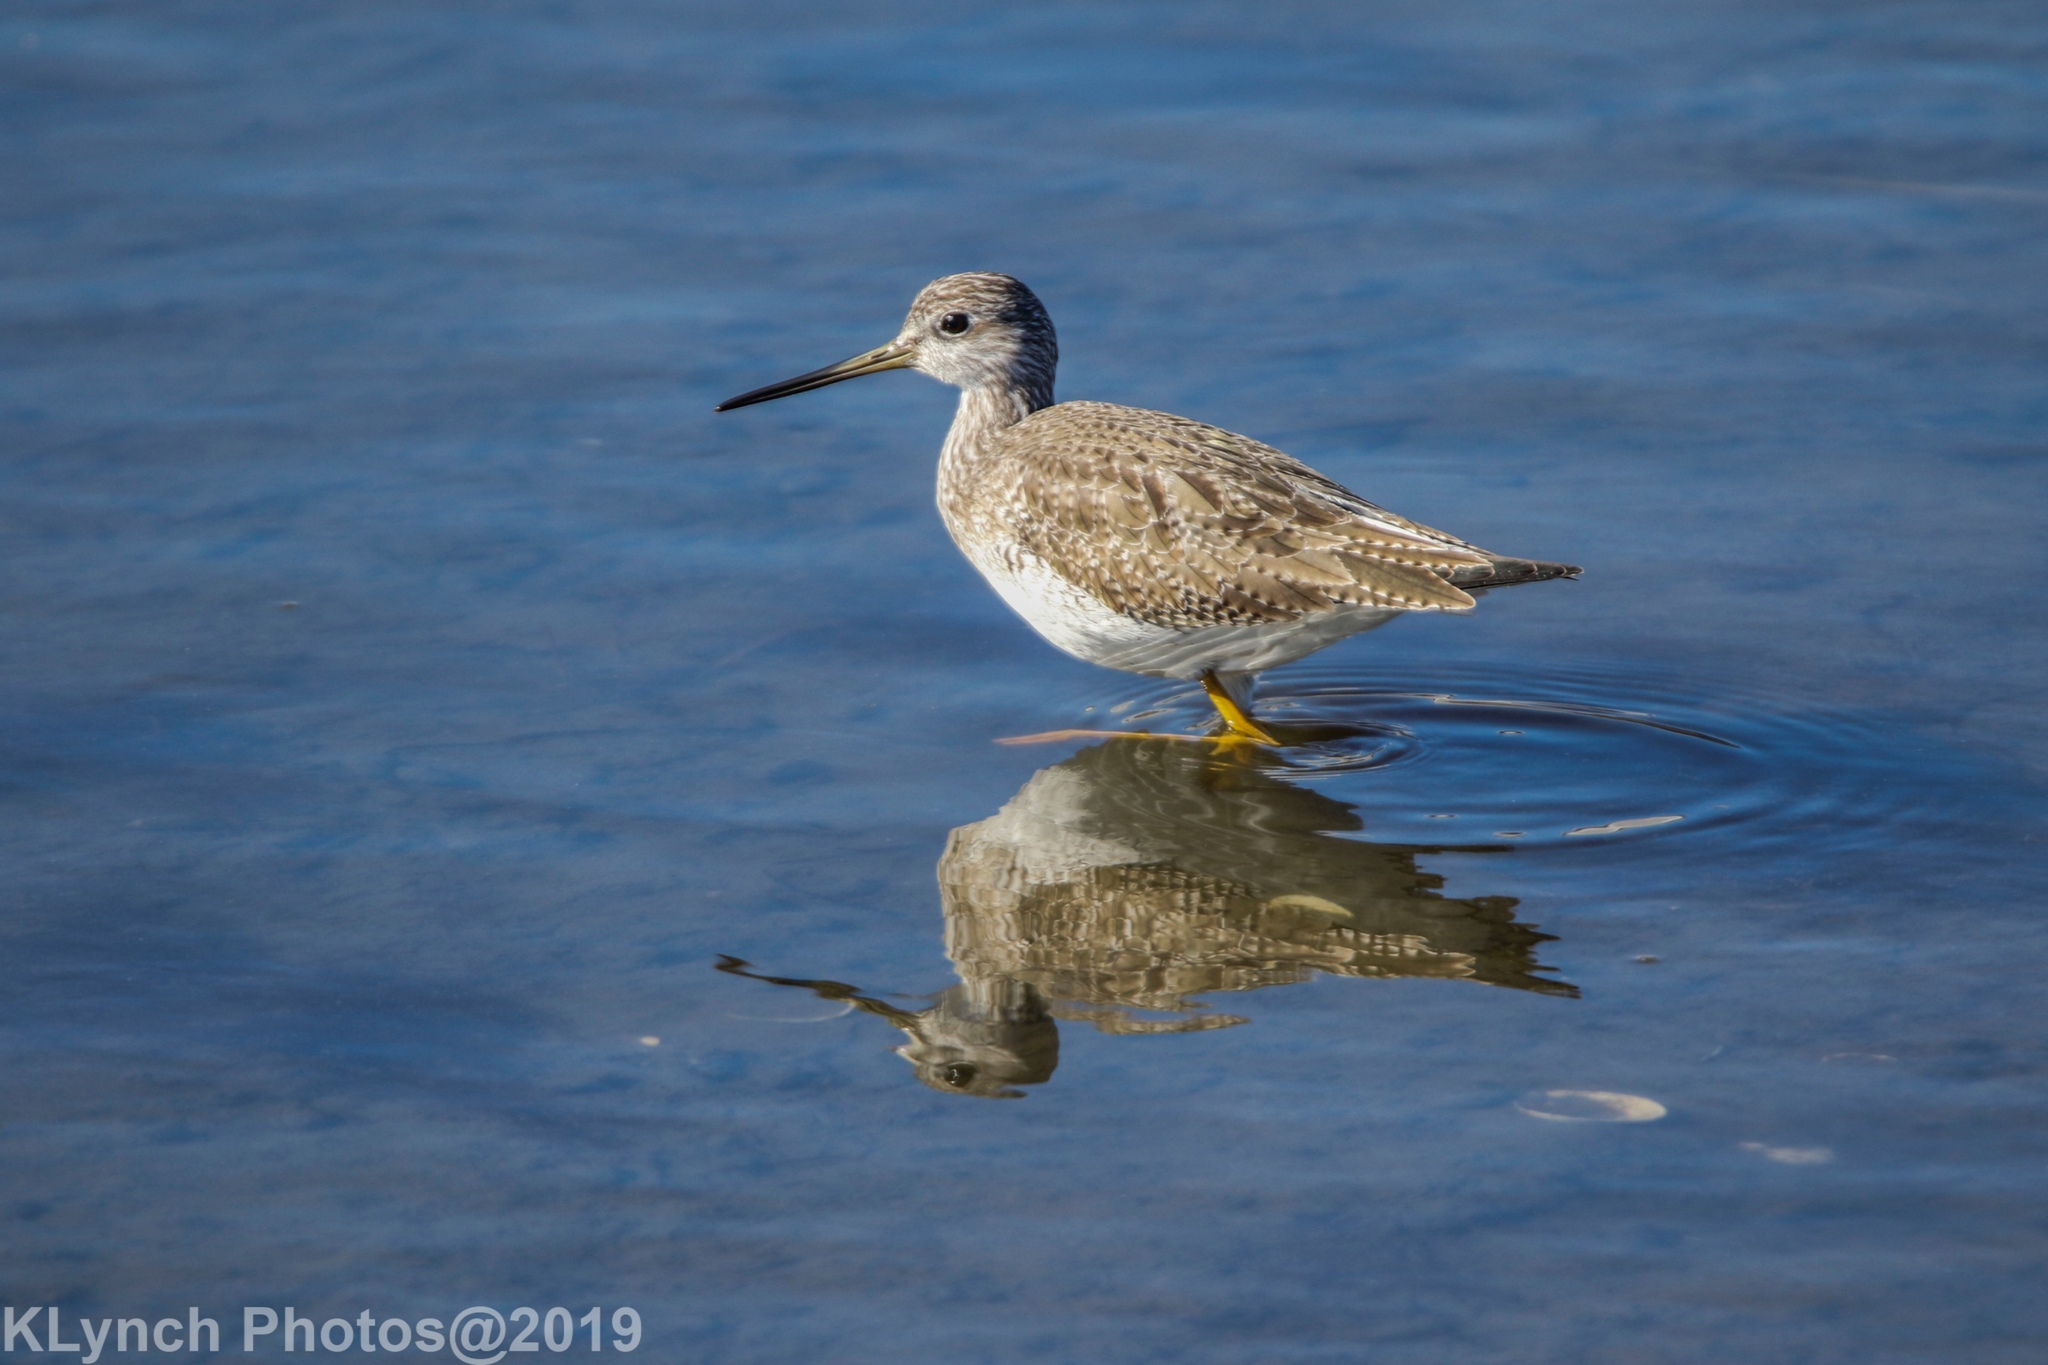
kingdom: Animalia
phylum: Chordata
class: Aves
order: Charadriiformes
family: Scolopacidae
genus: Tringa
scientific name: Tringa melanoleuca
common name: Greater yellowlegs
